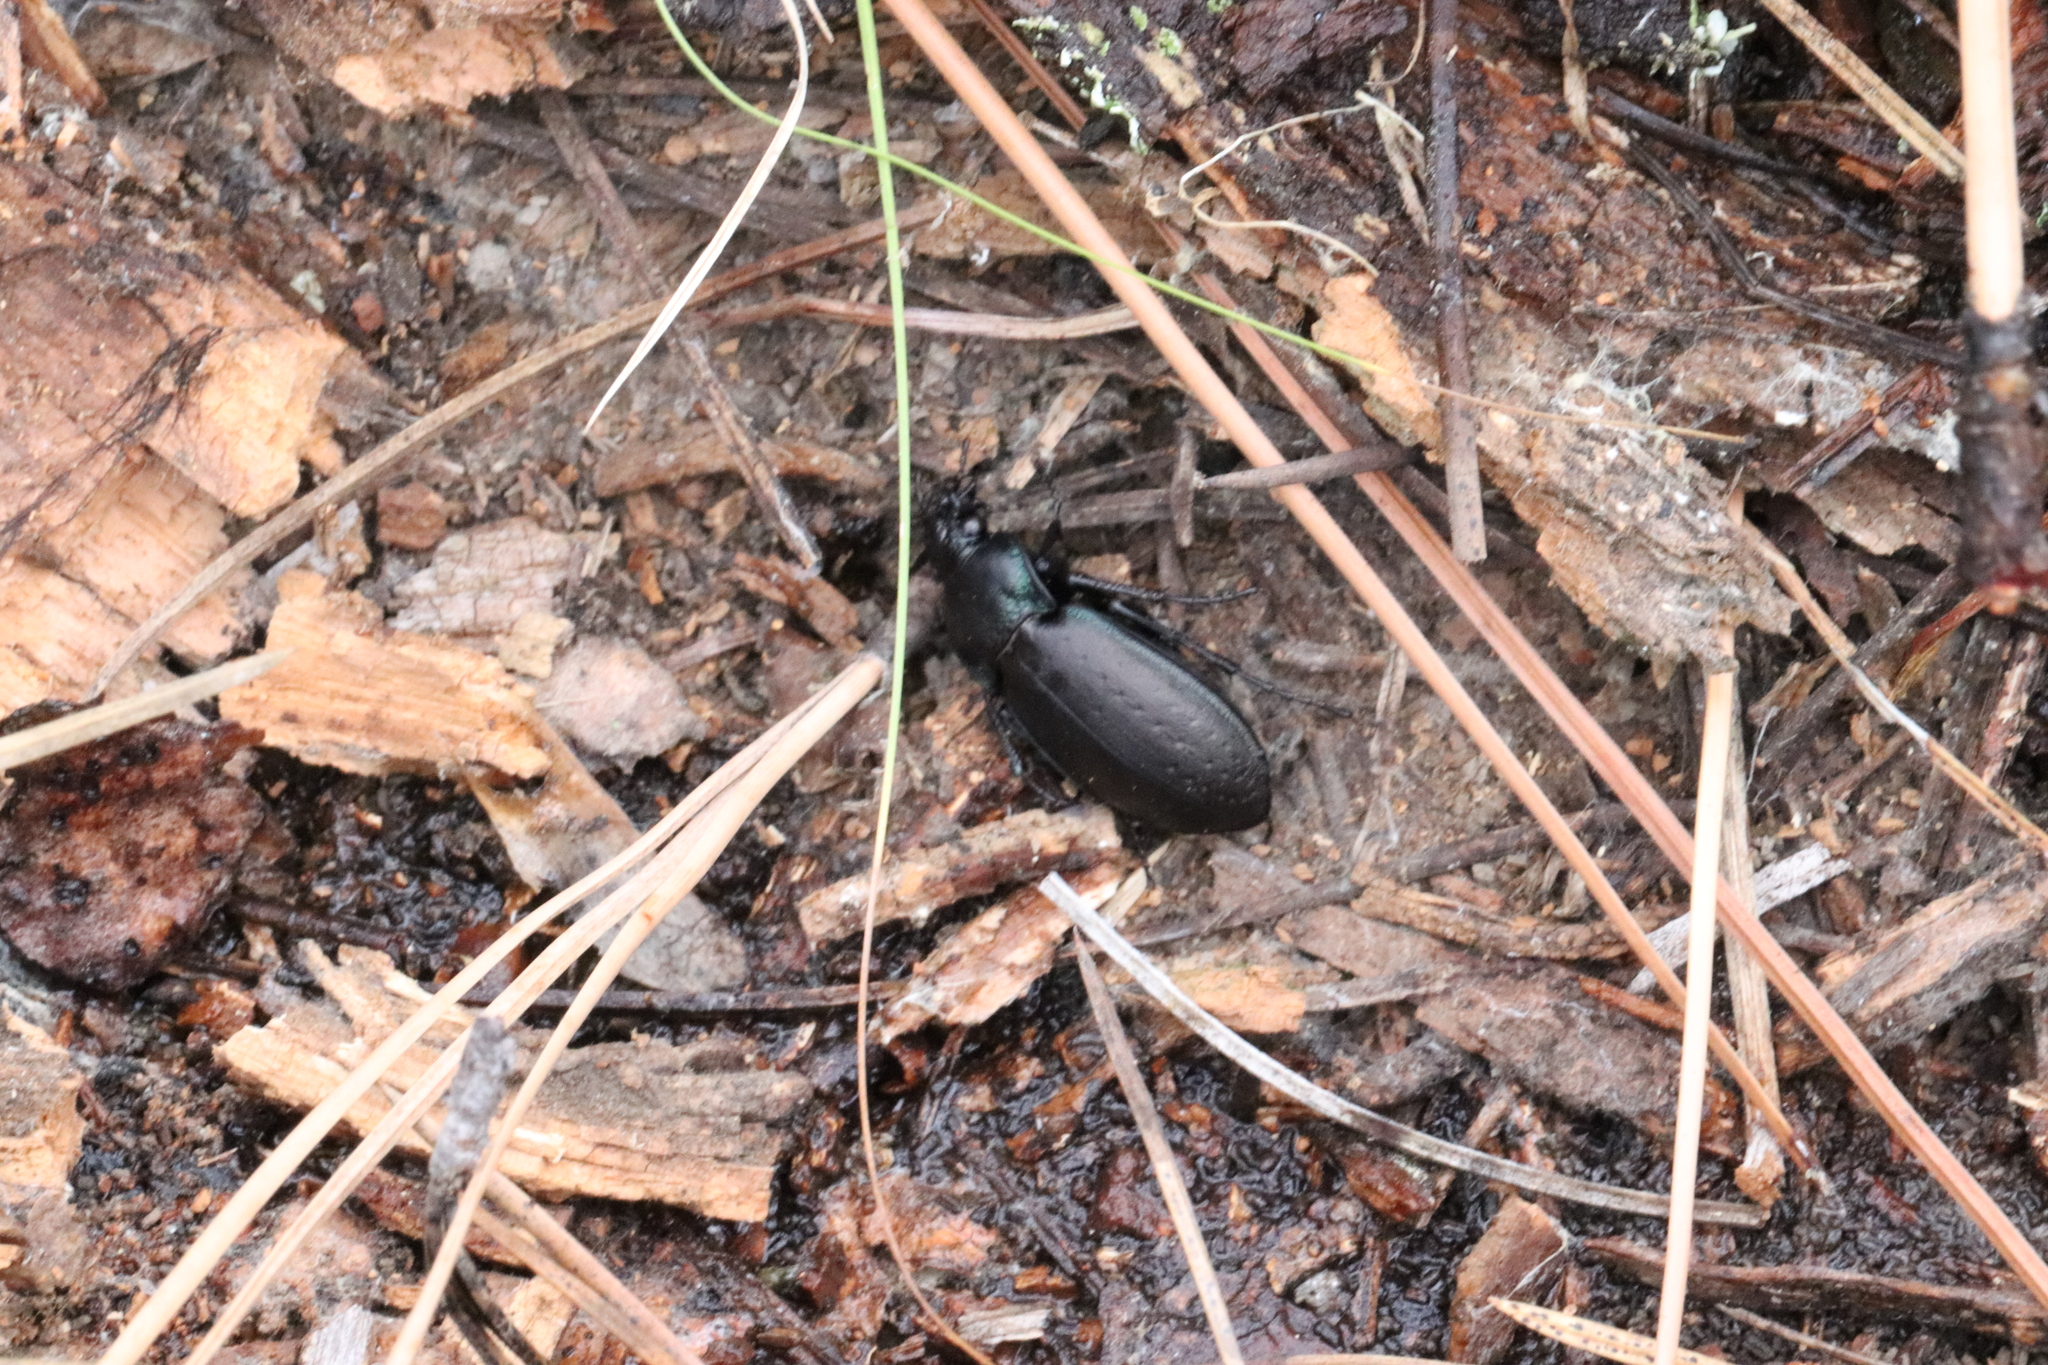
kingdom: Animalia
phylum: Arthropoda
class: Insecta
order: Coleoptera
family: Carabidae
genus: Carabus
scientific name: Carabus nemoralis
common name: European ground beetle
